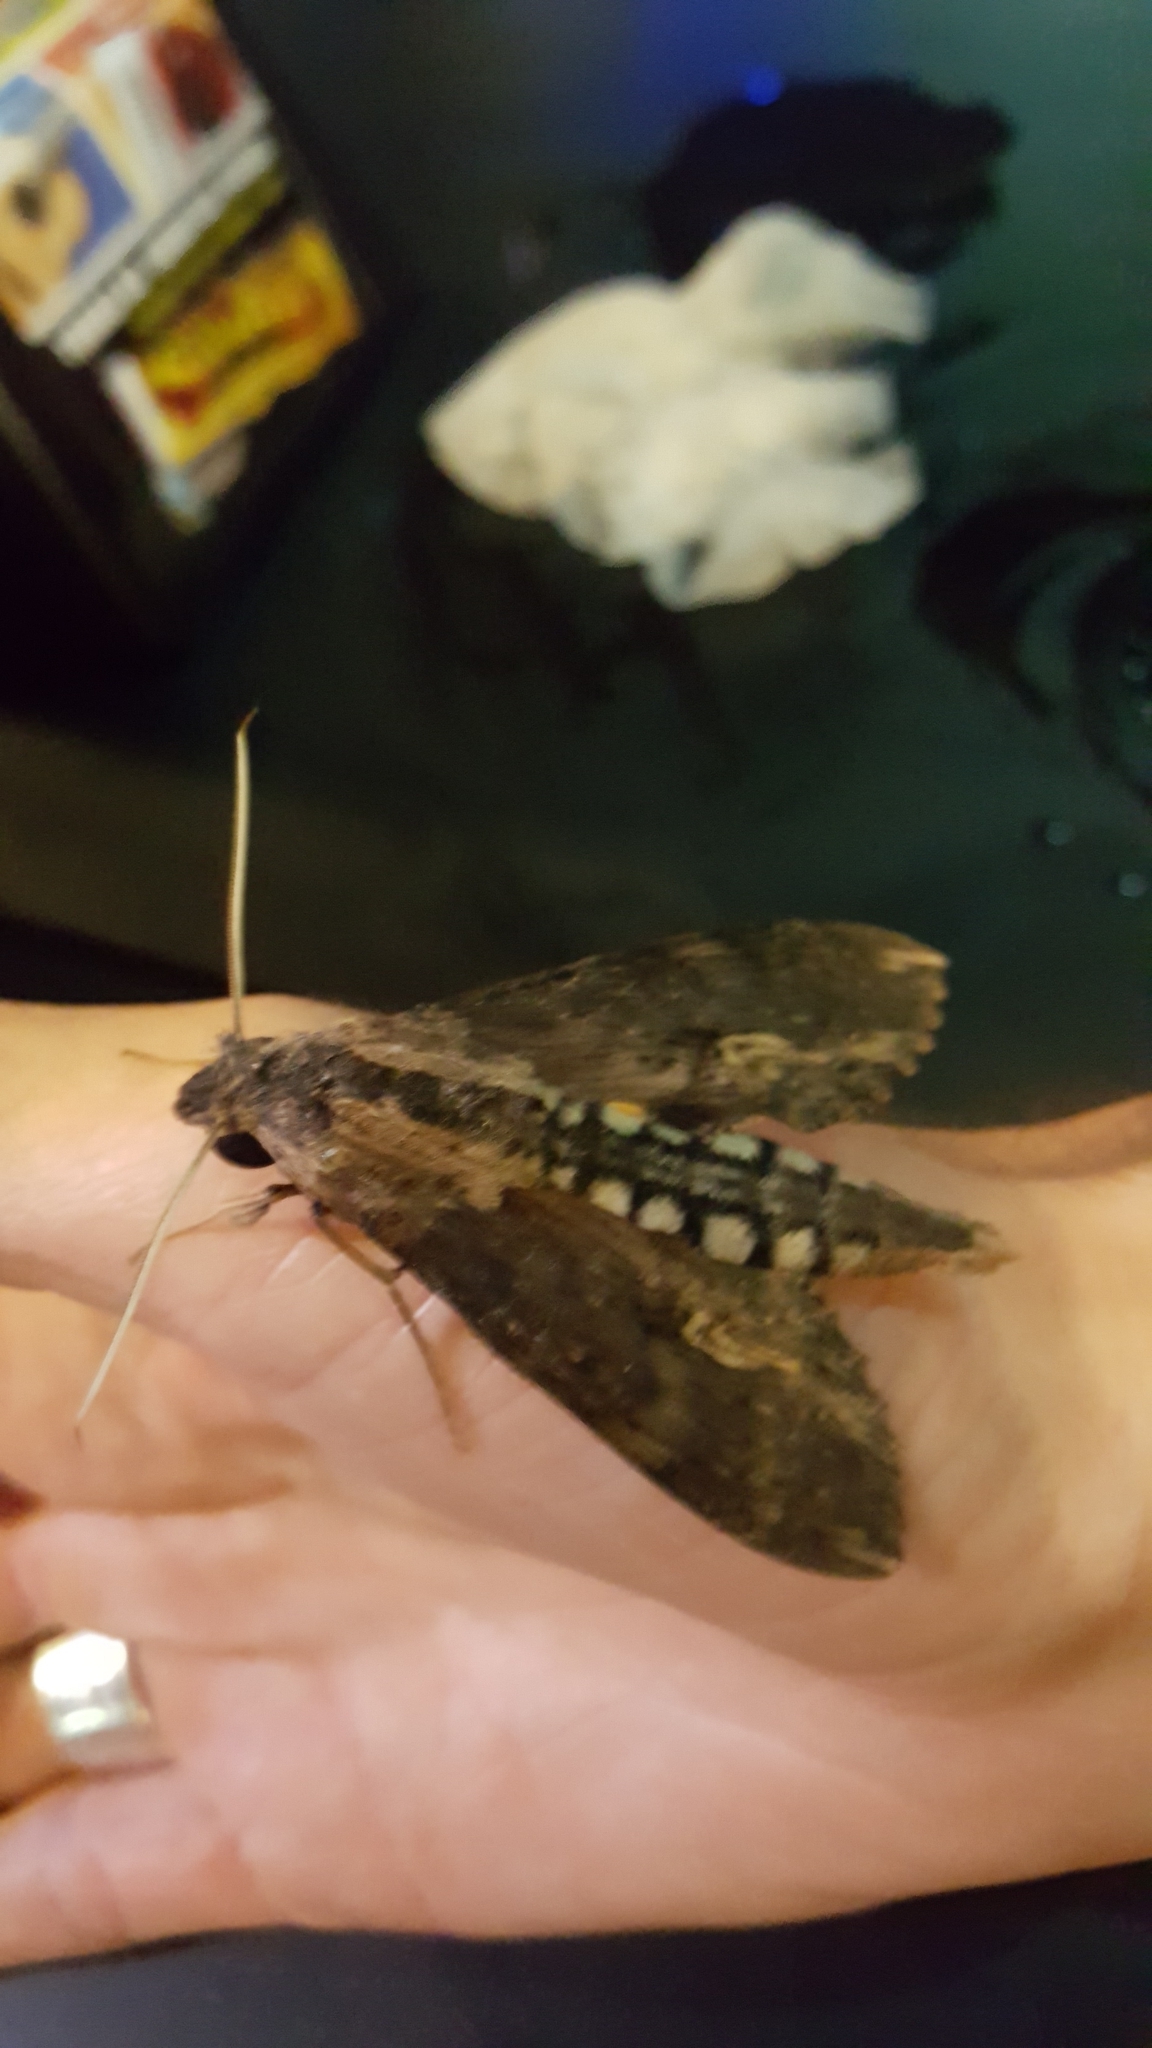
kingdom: Animalia
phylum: Arthropoda
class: Insecta
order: Lepidoptera
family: Sphingidae
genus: Erinnyis
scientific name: Erinnyis alope
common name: Alope sphinx
